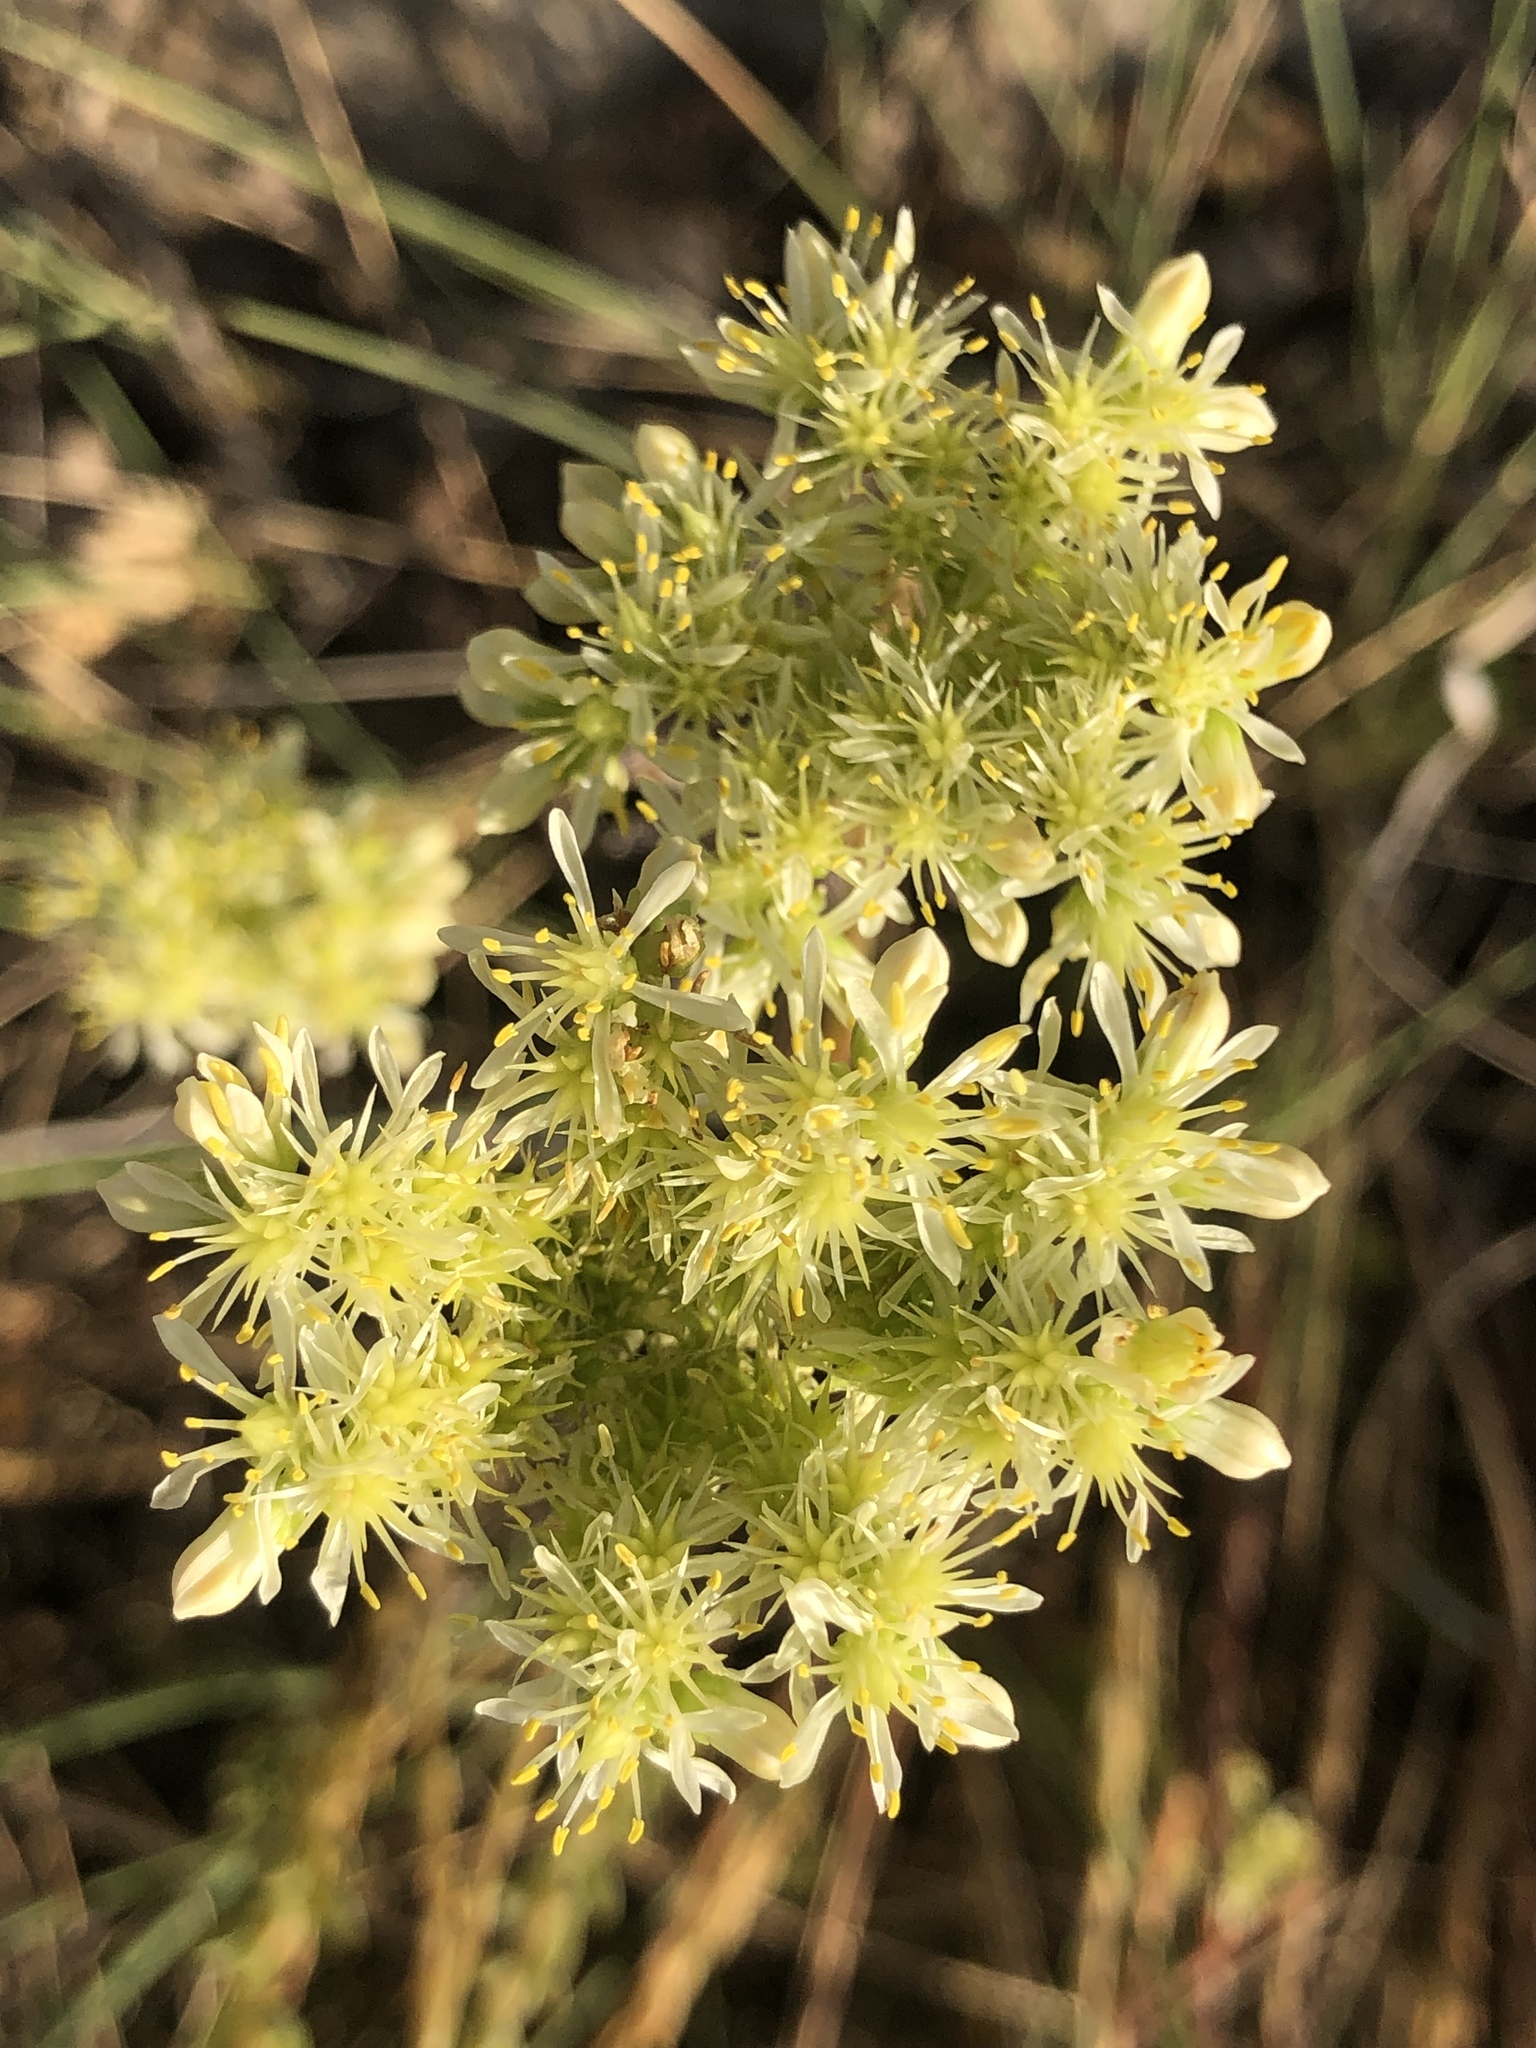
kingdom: Plantae
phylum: Tracheophyta
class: Magnoliopsida
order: Saxifragales
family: Crassulaceae
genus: Petrosedum
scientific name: Petrosedum sediforme
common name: Pale stonecrop
